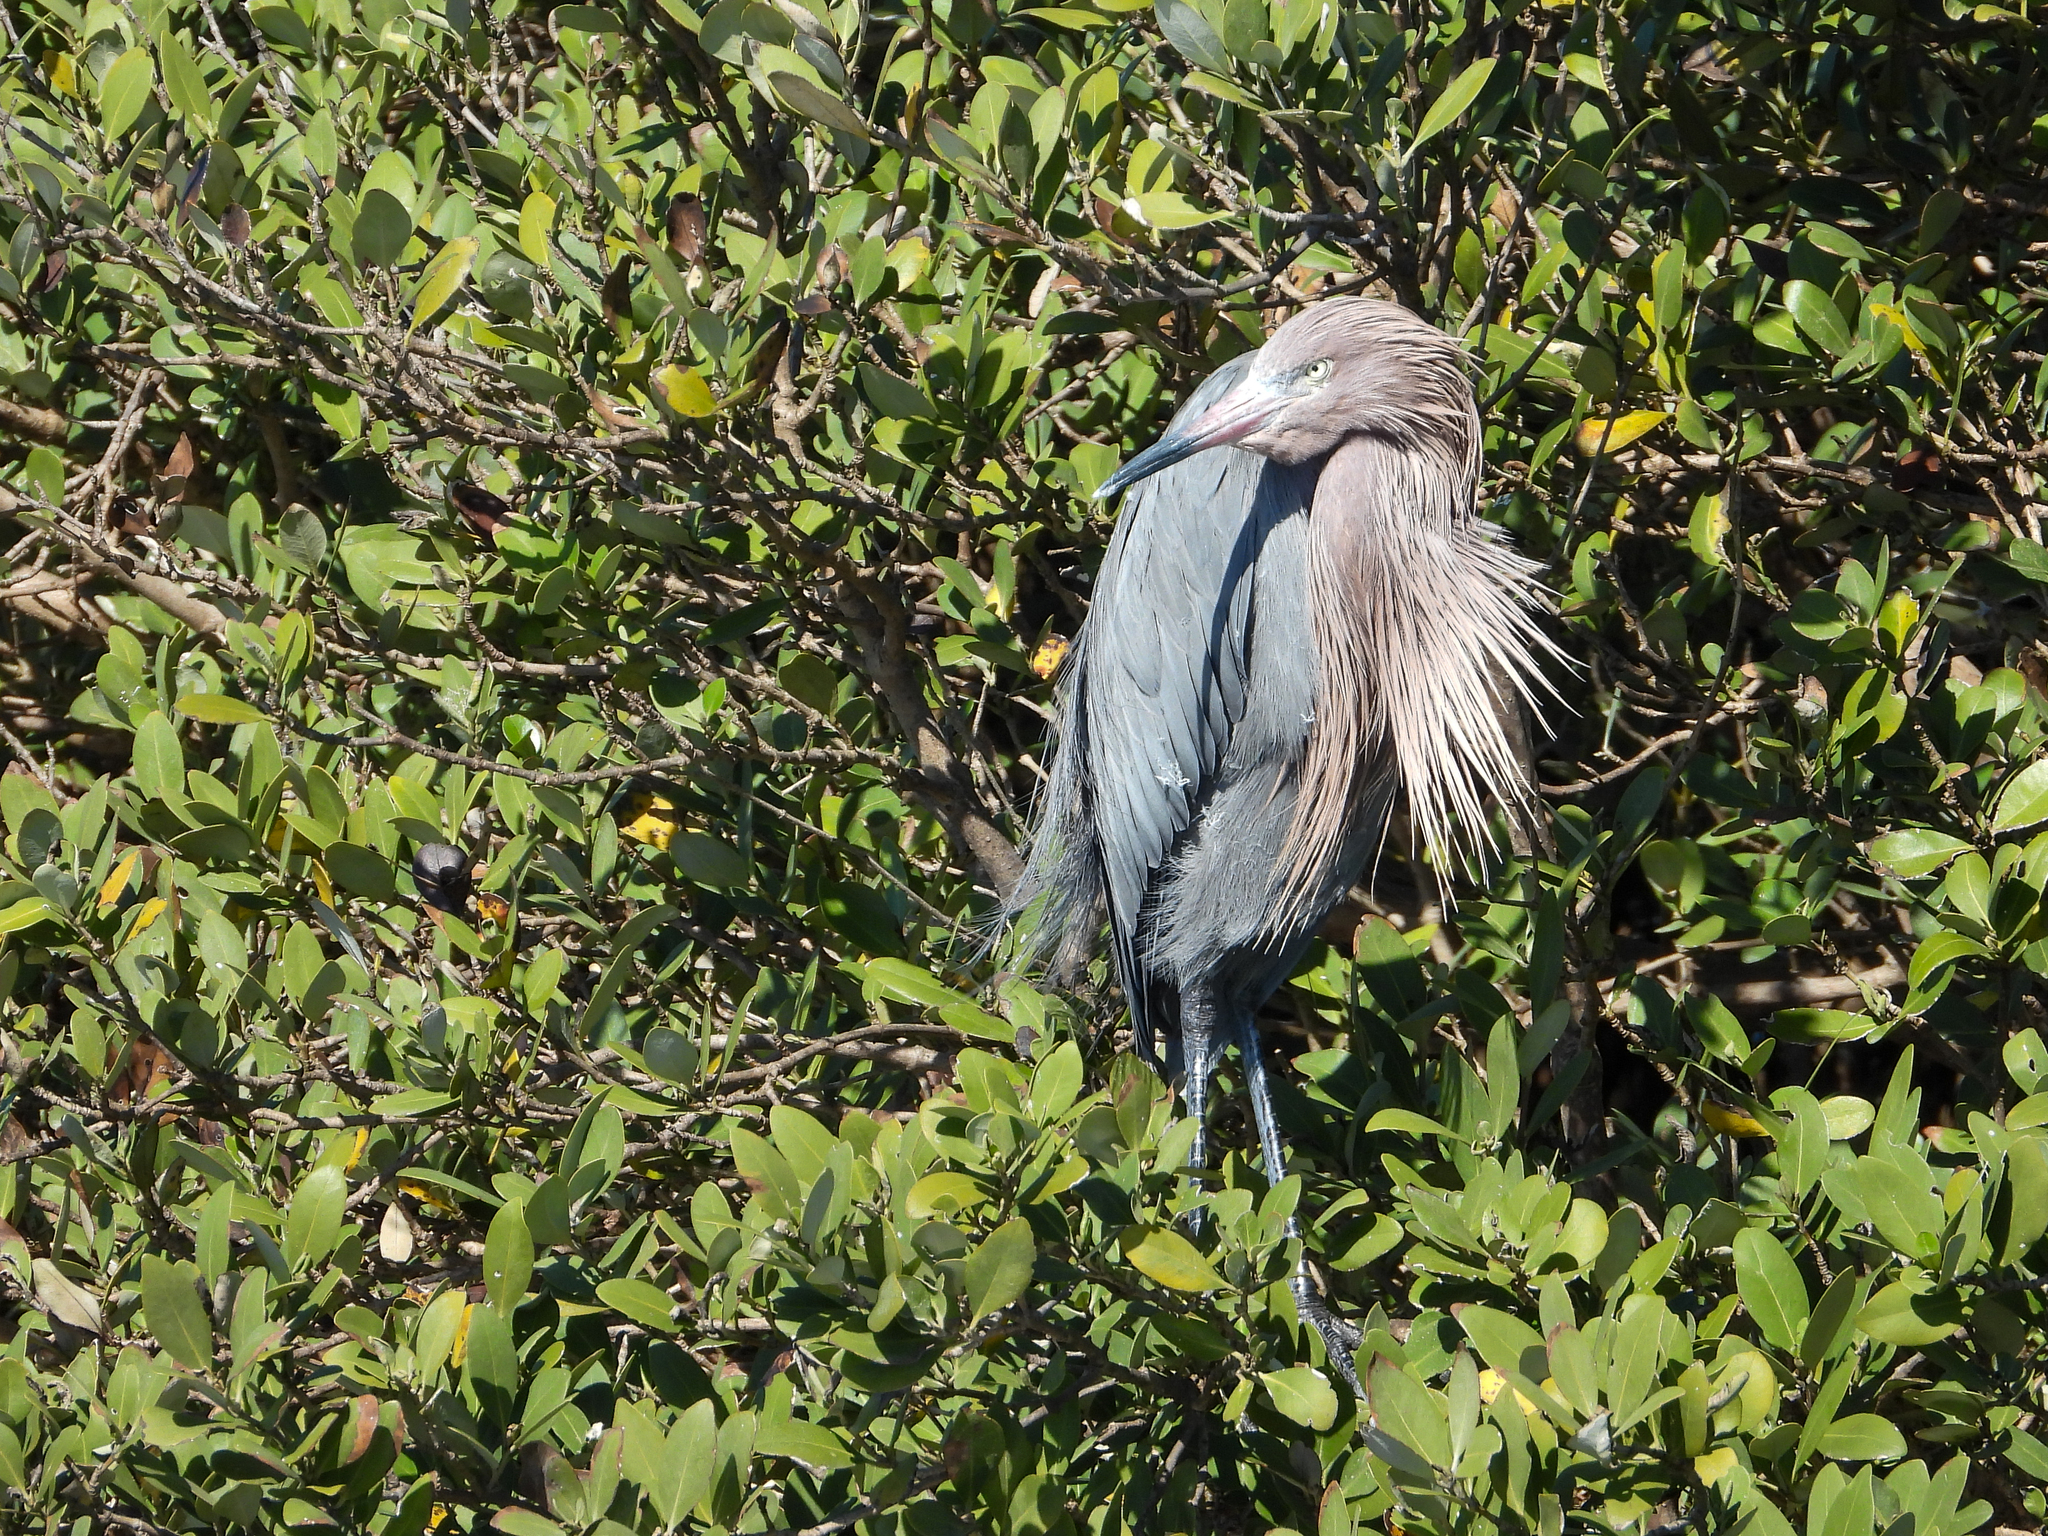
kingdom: Animalia
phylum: Chordata
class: Aves
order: Pelecaniformes
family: Ardeidae
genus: Egretta
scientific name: Egretta rufescens
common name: Reddish egret
